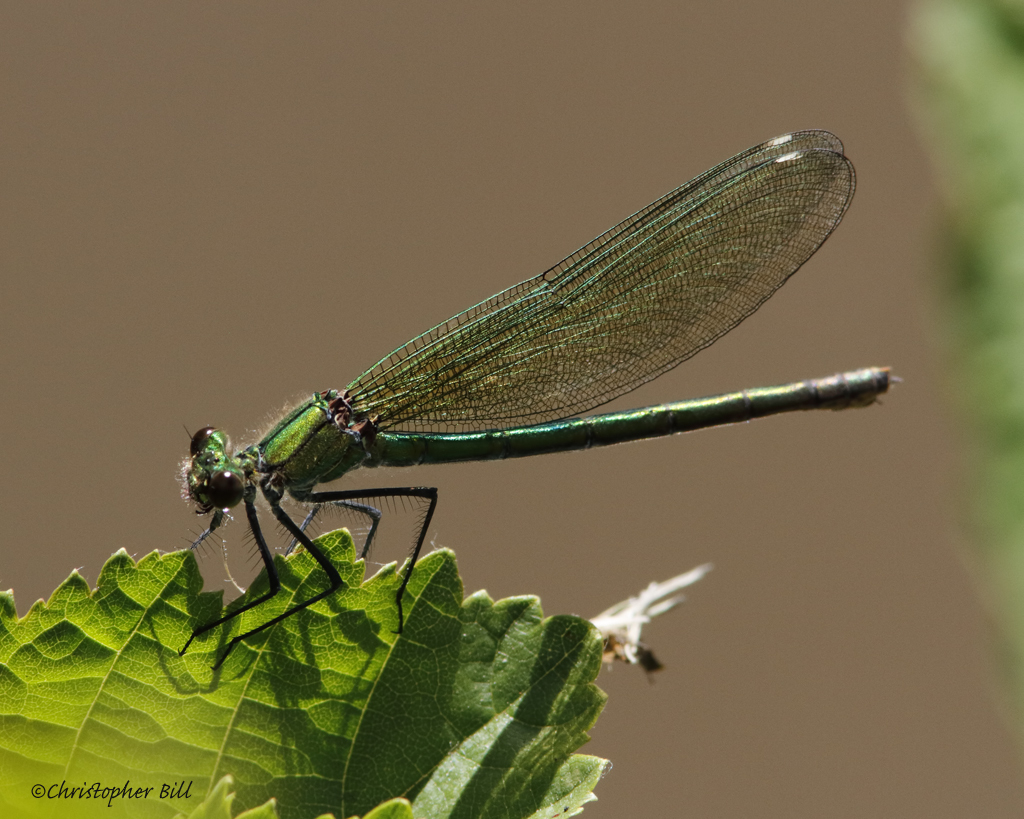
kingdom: Animalia
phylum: Arthropoda
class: Insecta
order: Odonata
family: Calopterygidae
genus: Calopteryx
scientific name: Calopteryx splendens
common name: Banded demoiselle
